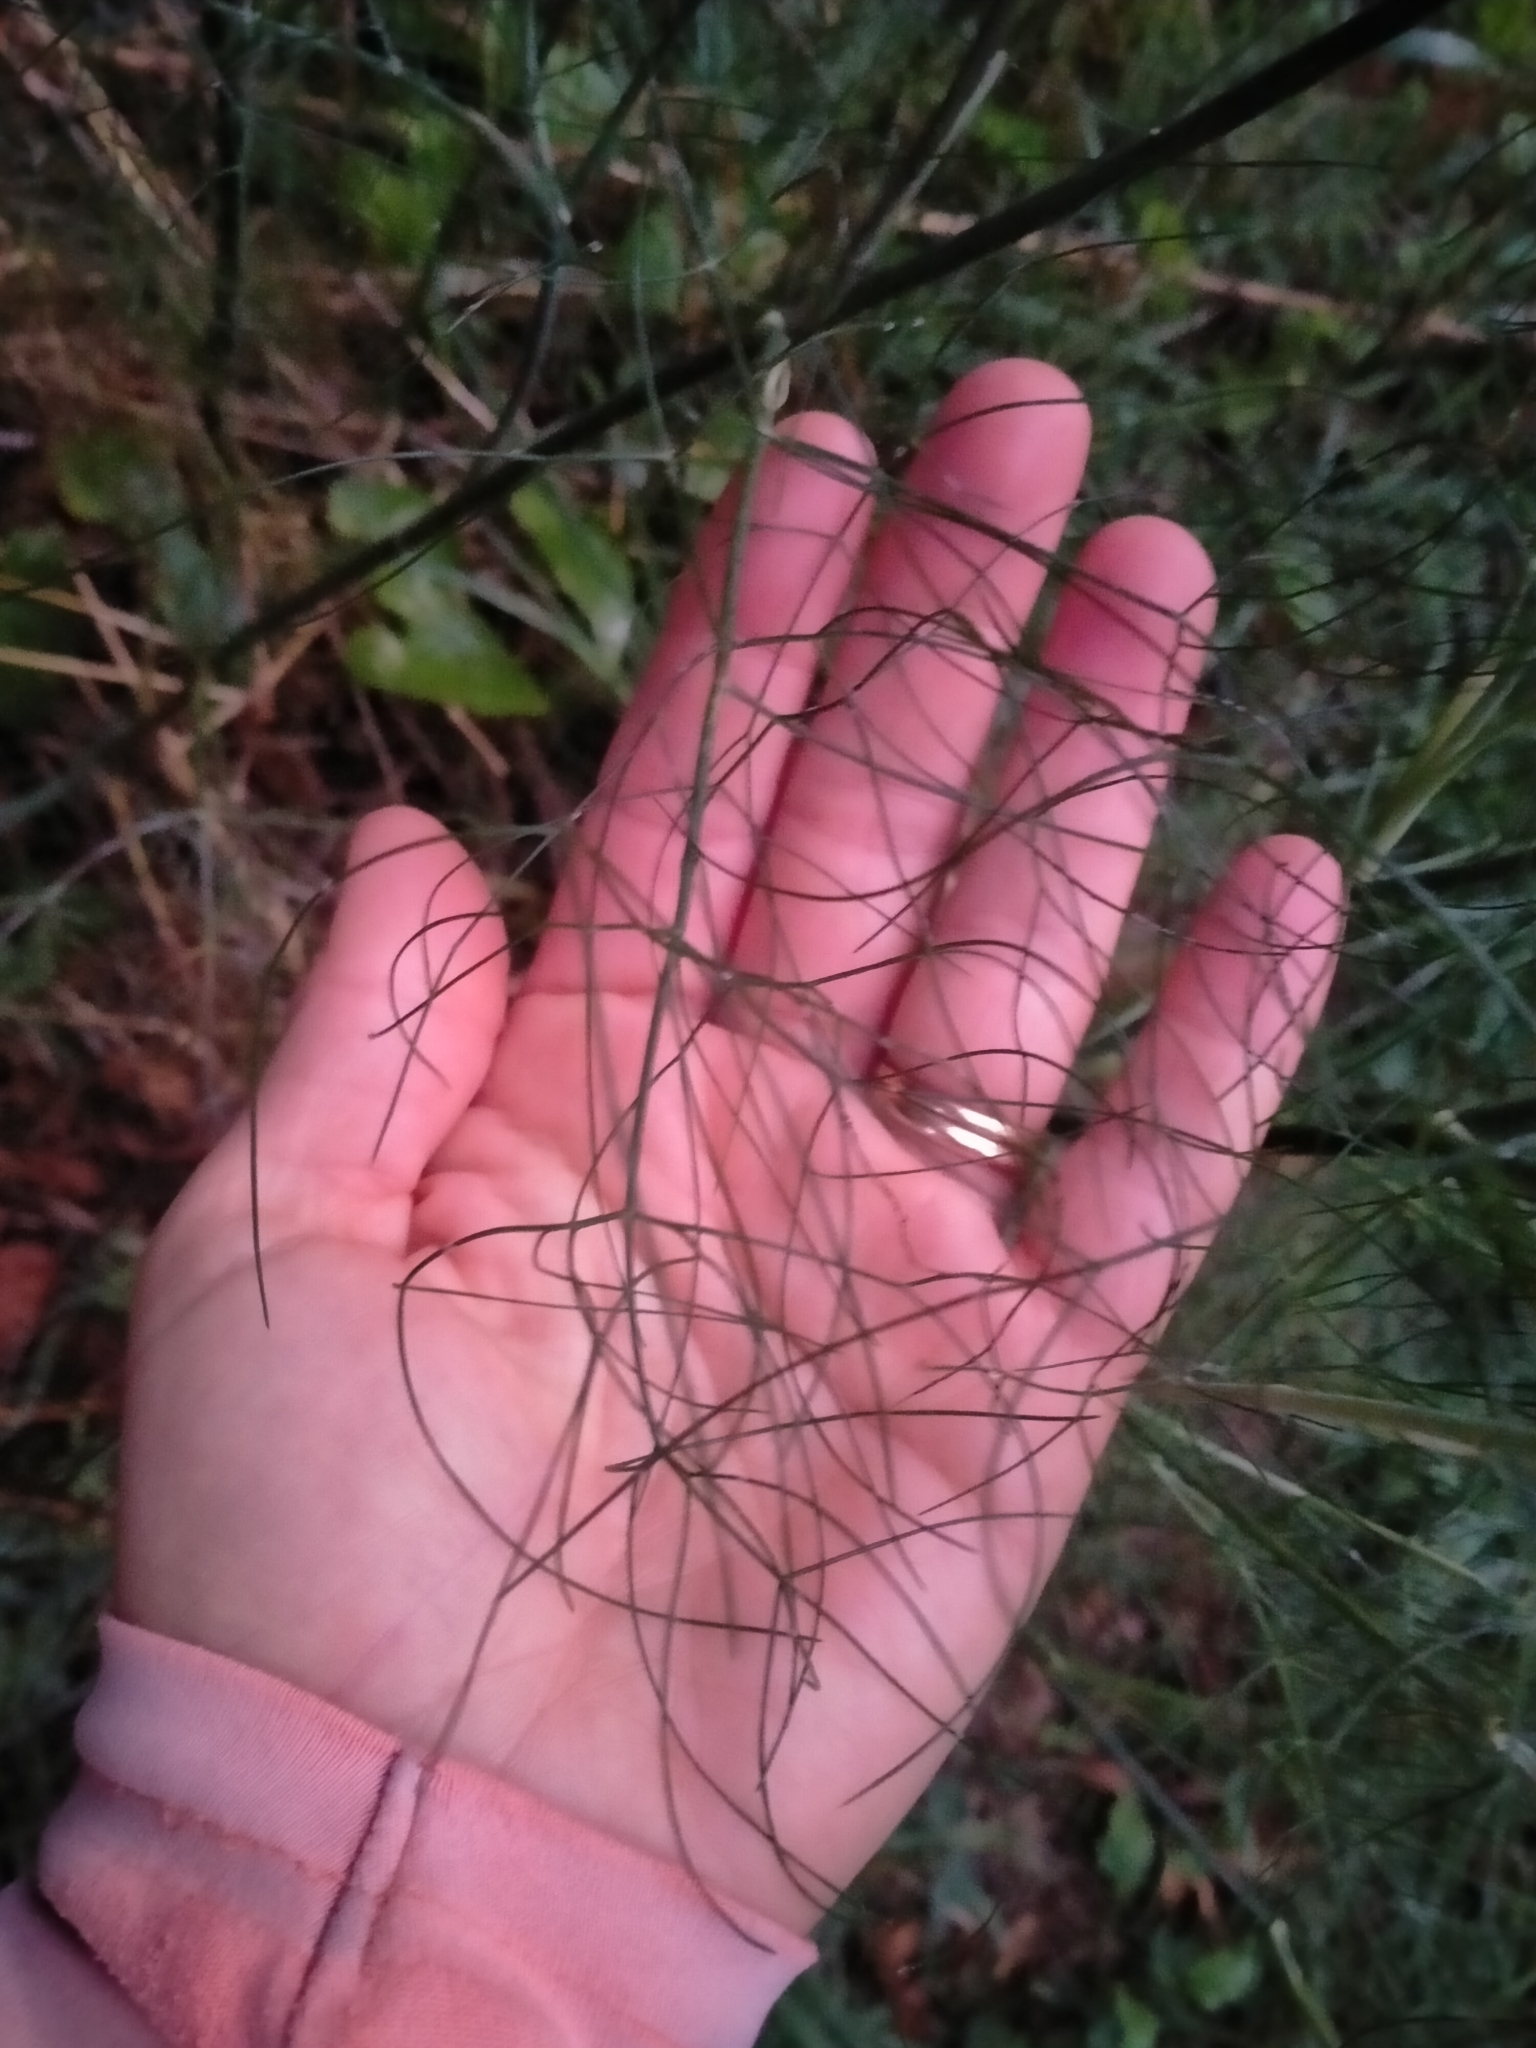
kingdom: Plantae
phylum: Tracheophyta
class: Magnoliopsida
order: Apiales
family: Apiaceae
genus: Foeniculum
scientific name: Foeniculum vulgare
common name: Fennel
